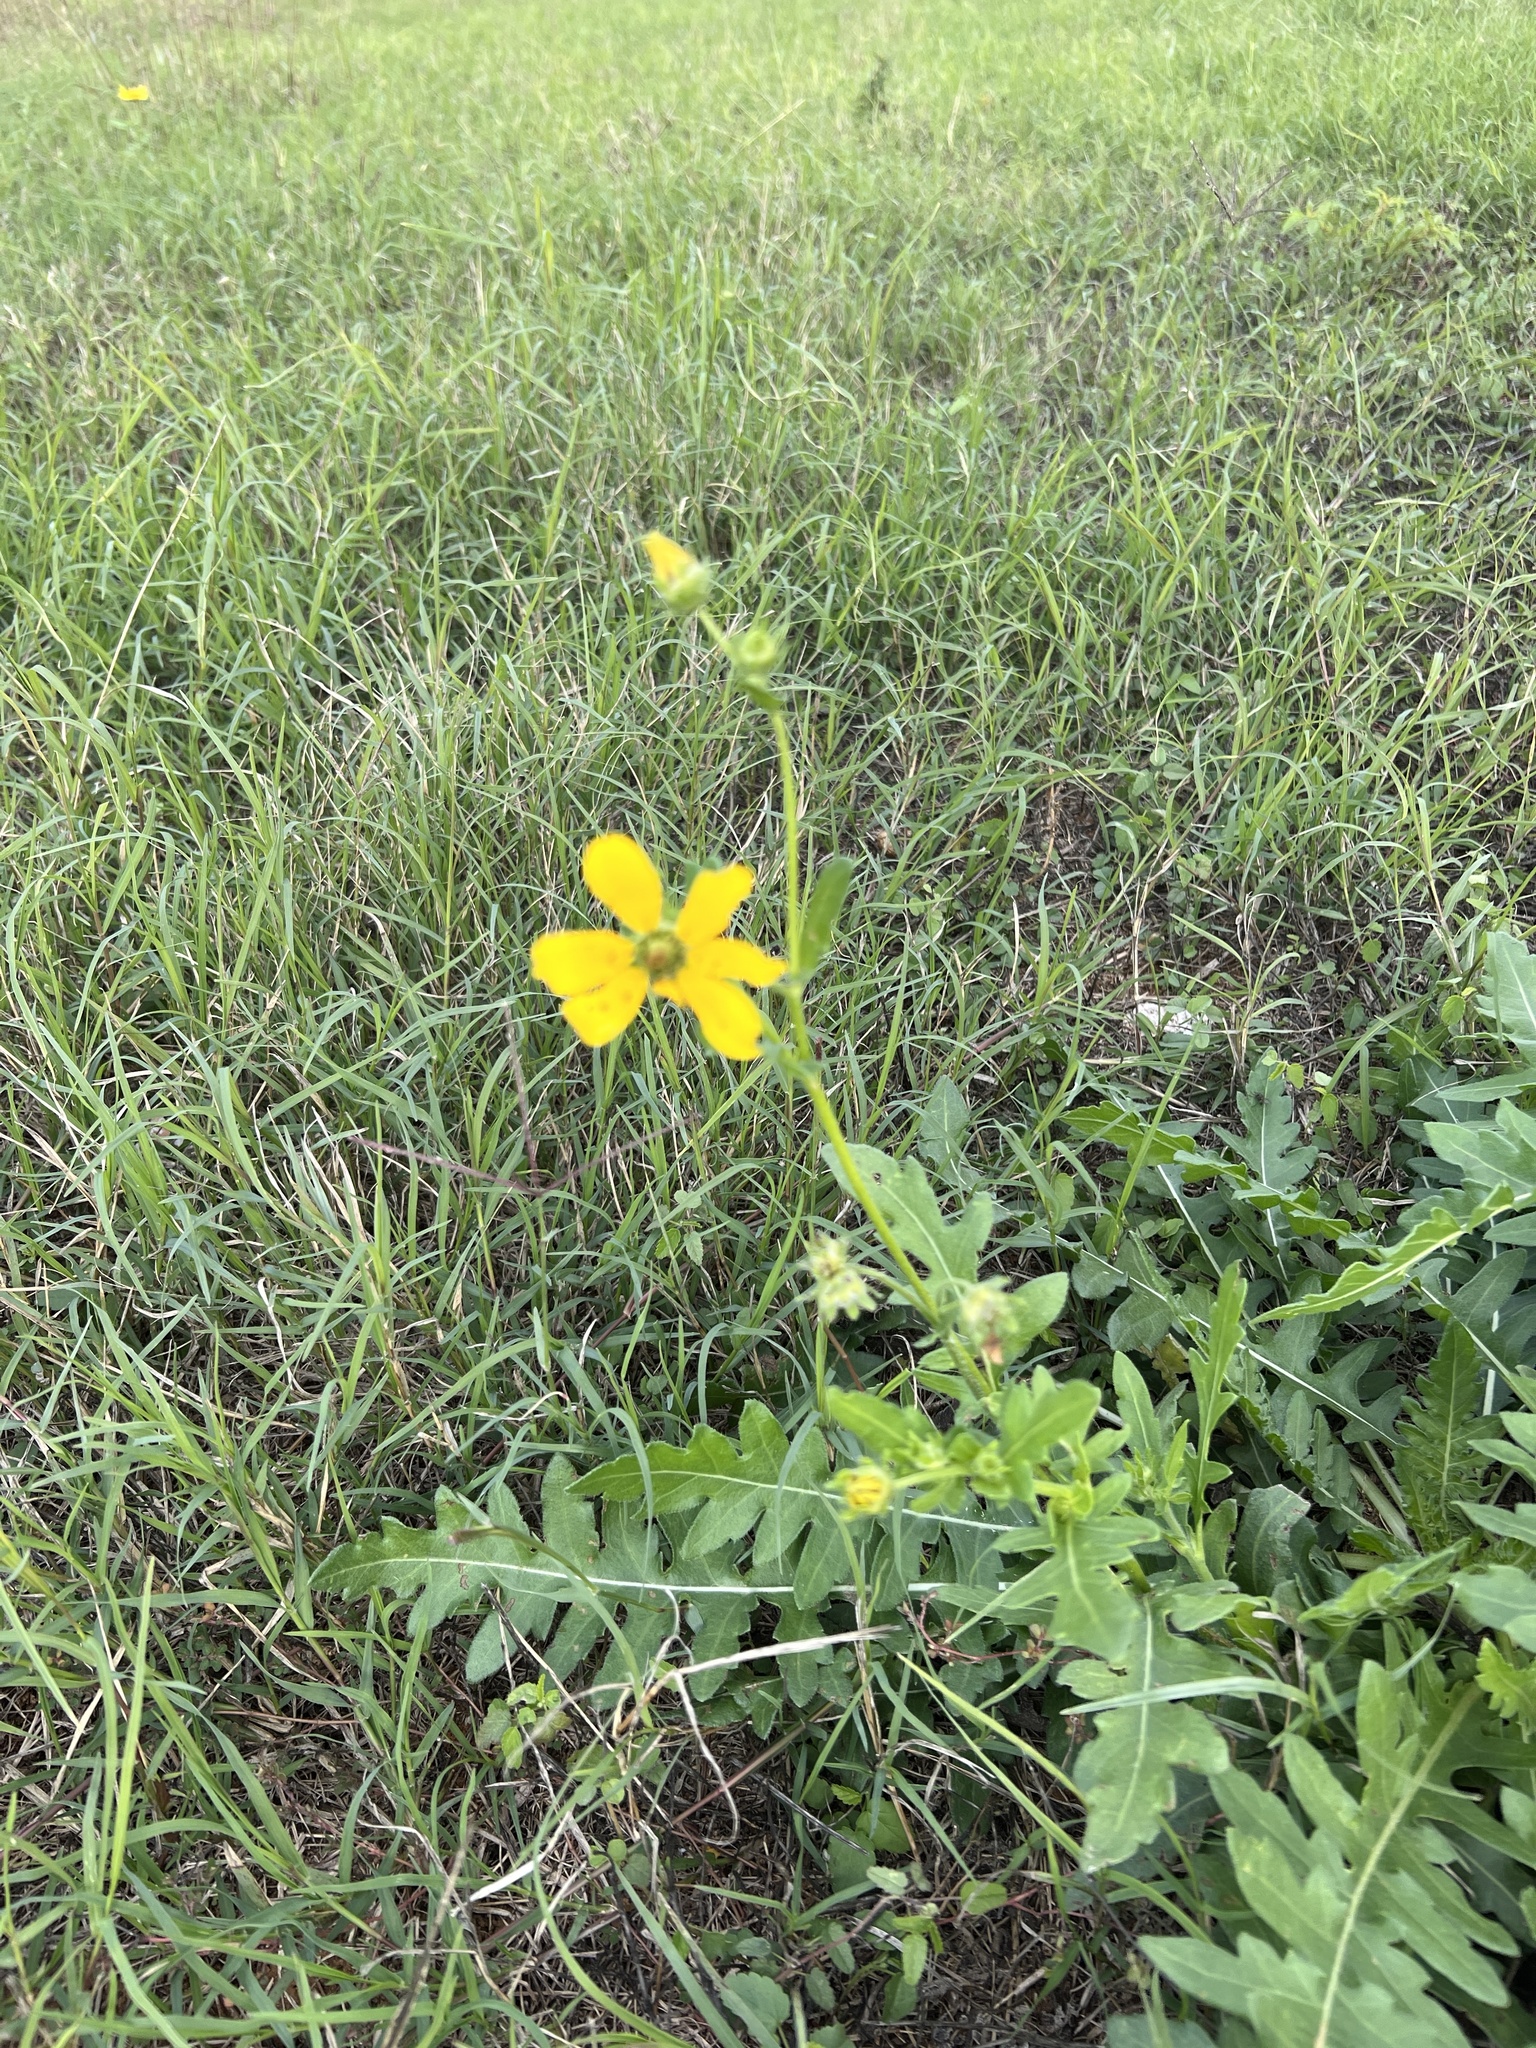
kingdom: Plantae
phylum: Tracheophyta
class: Magnoliopsida
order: Asterales
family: Asteraceae
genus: Engelmannia
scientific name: Engelmannia peristenia
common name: Engelmann's daisy
